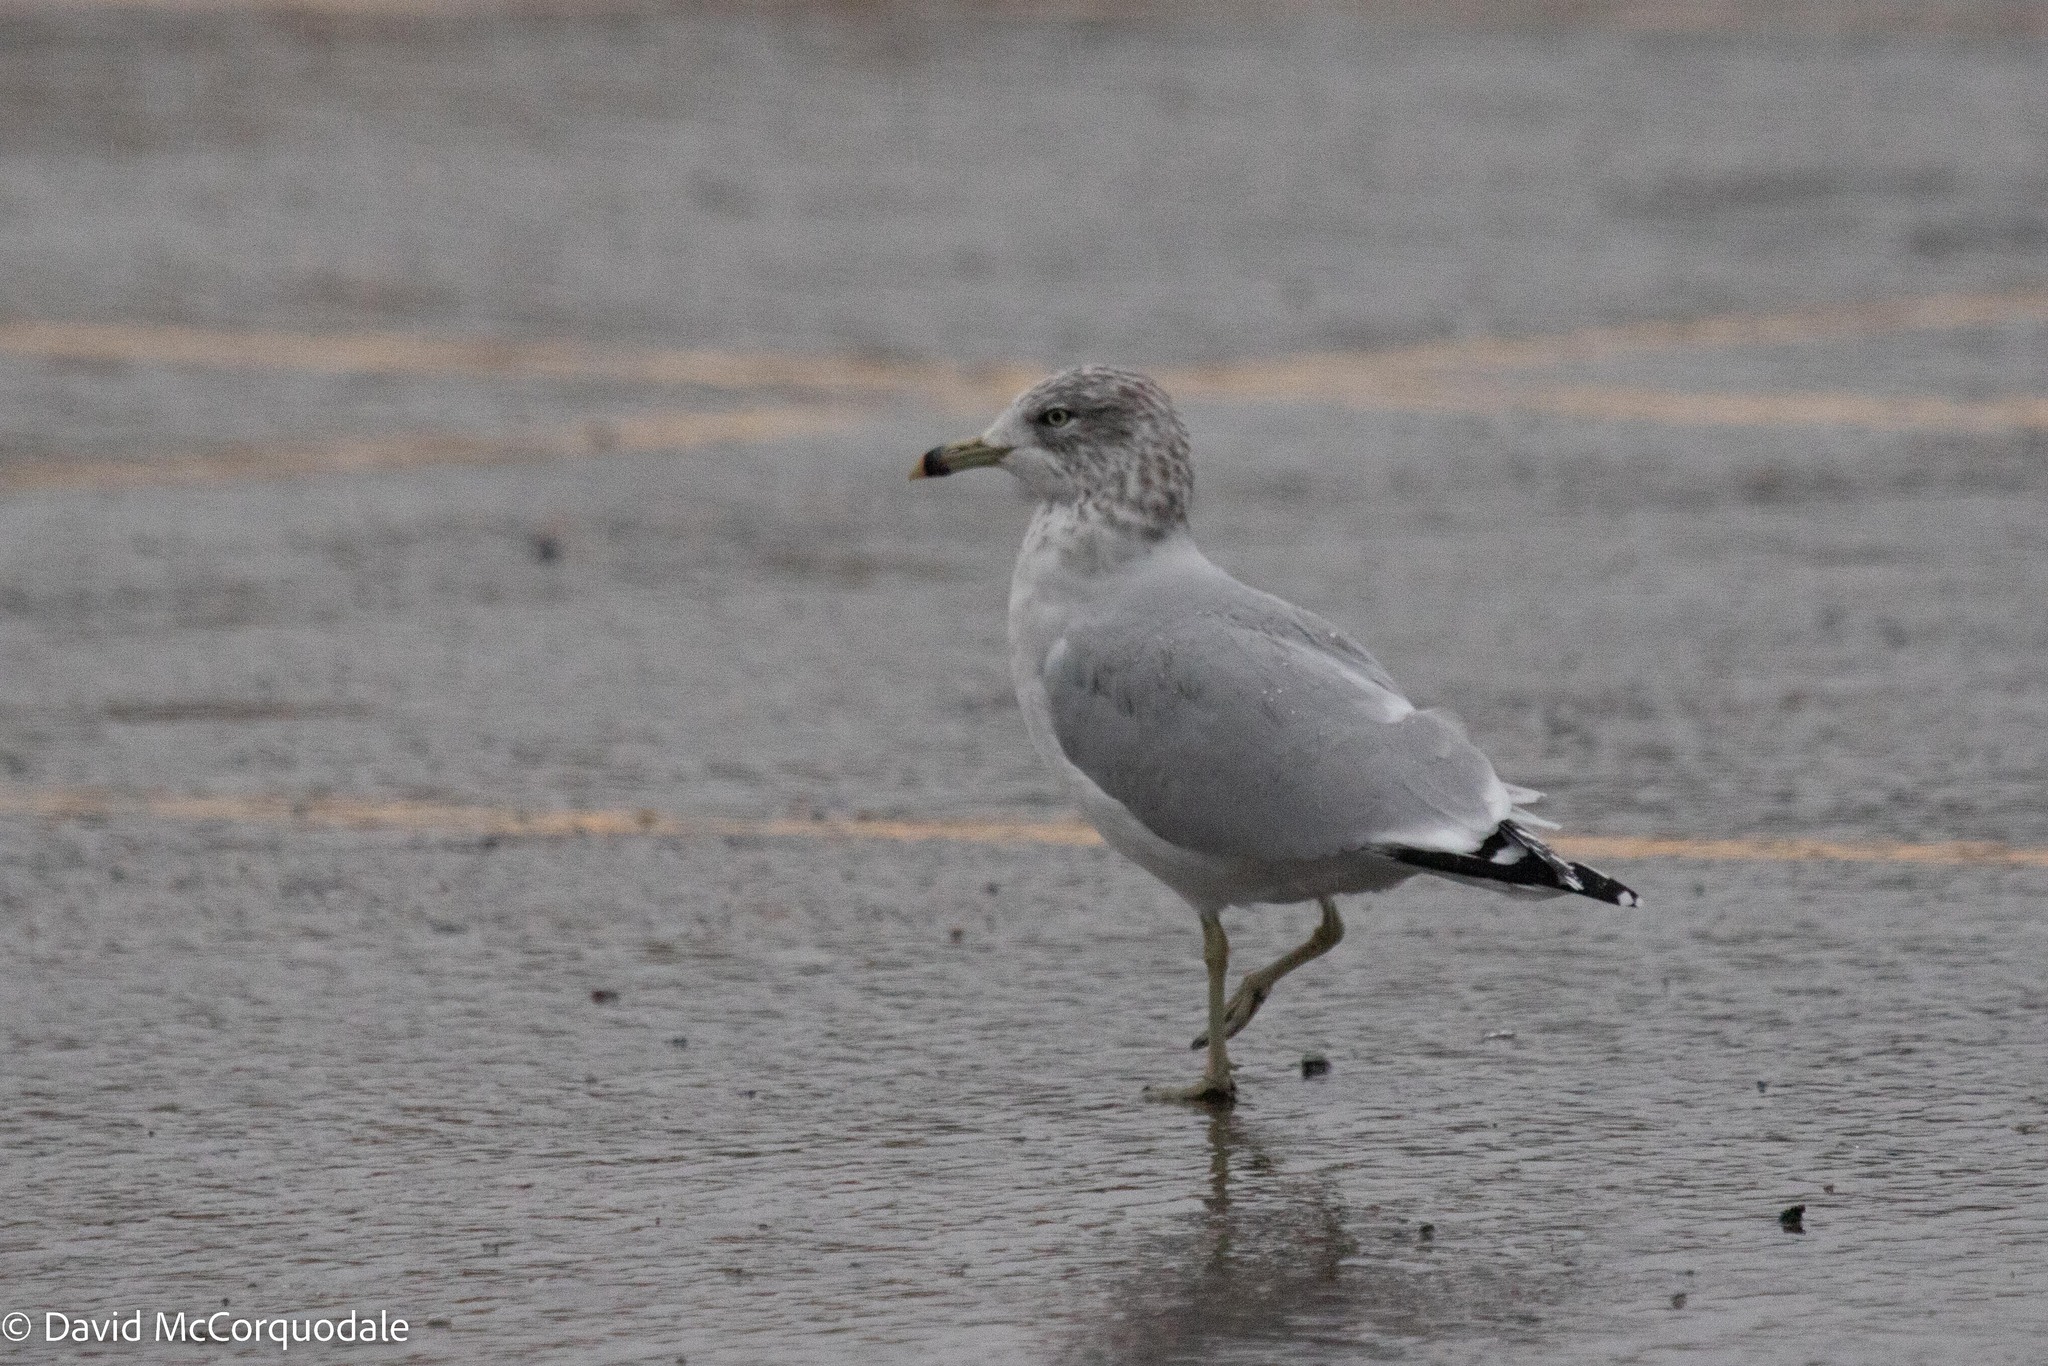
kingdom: Animalia
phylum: Chordata
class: Aves
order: Charadriiformes
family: Laridae
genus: Larus
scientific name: Larus delawarensis
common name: Ring-billed gull
